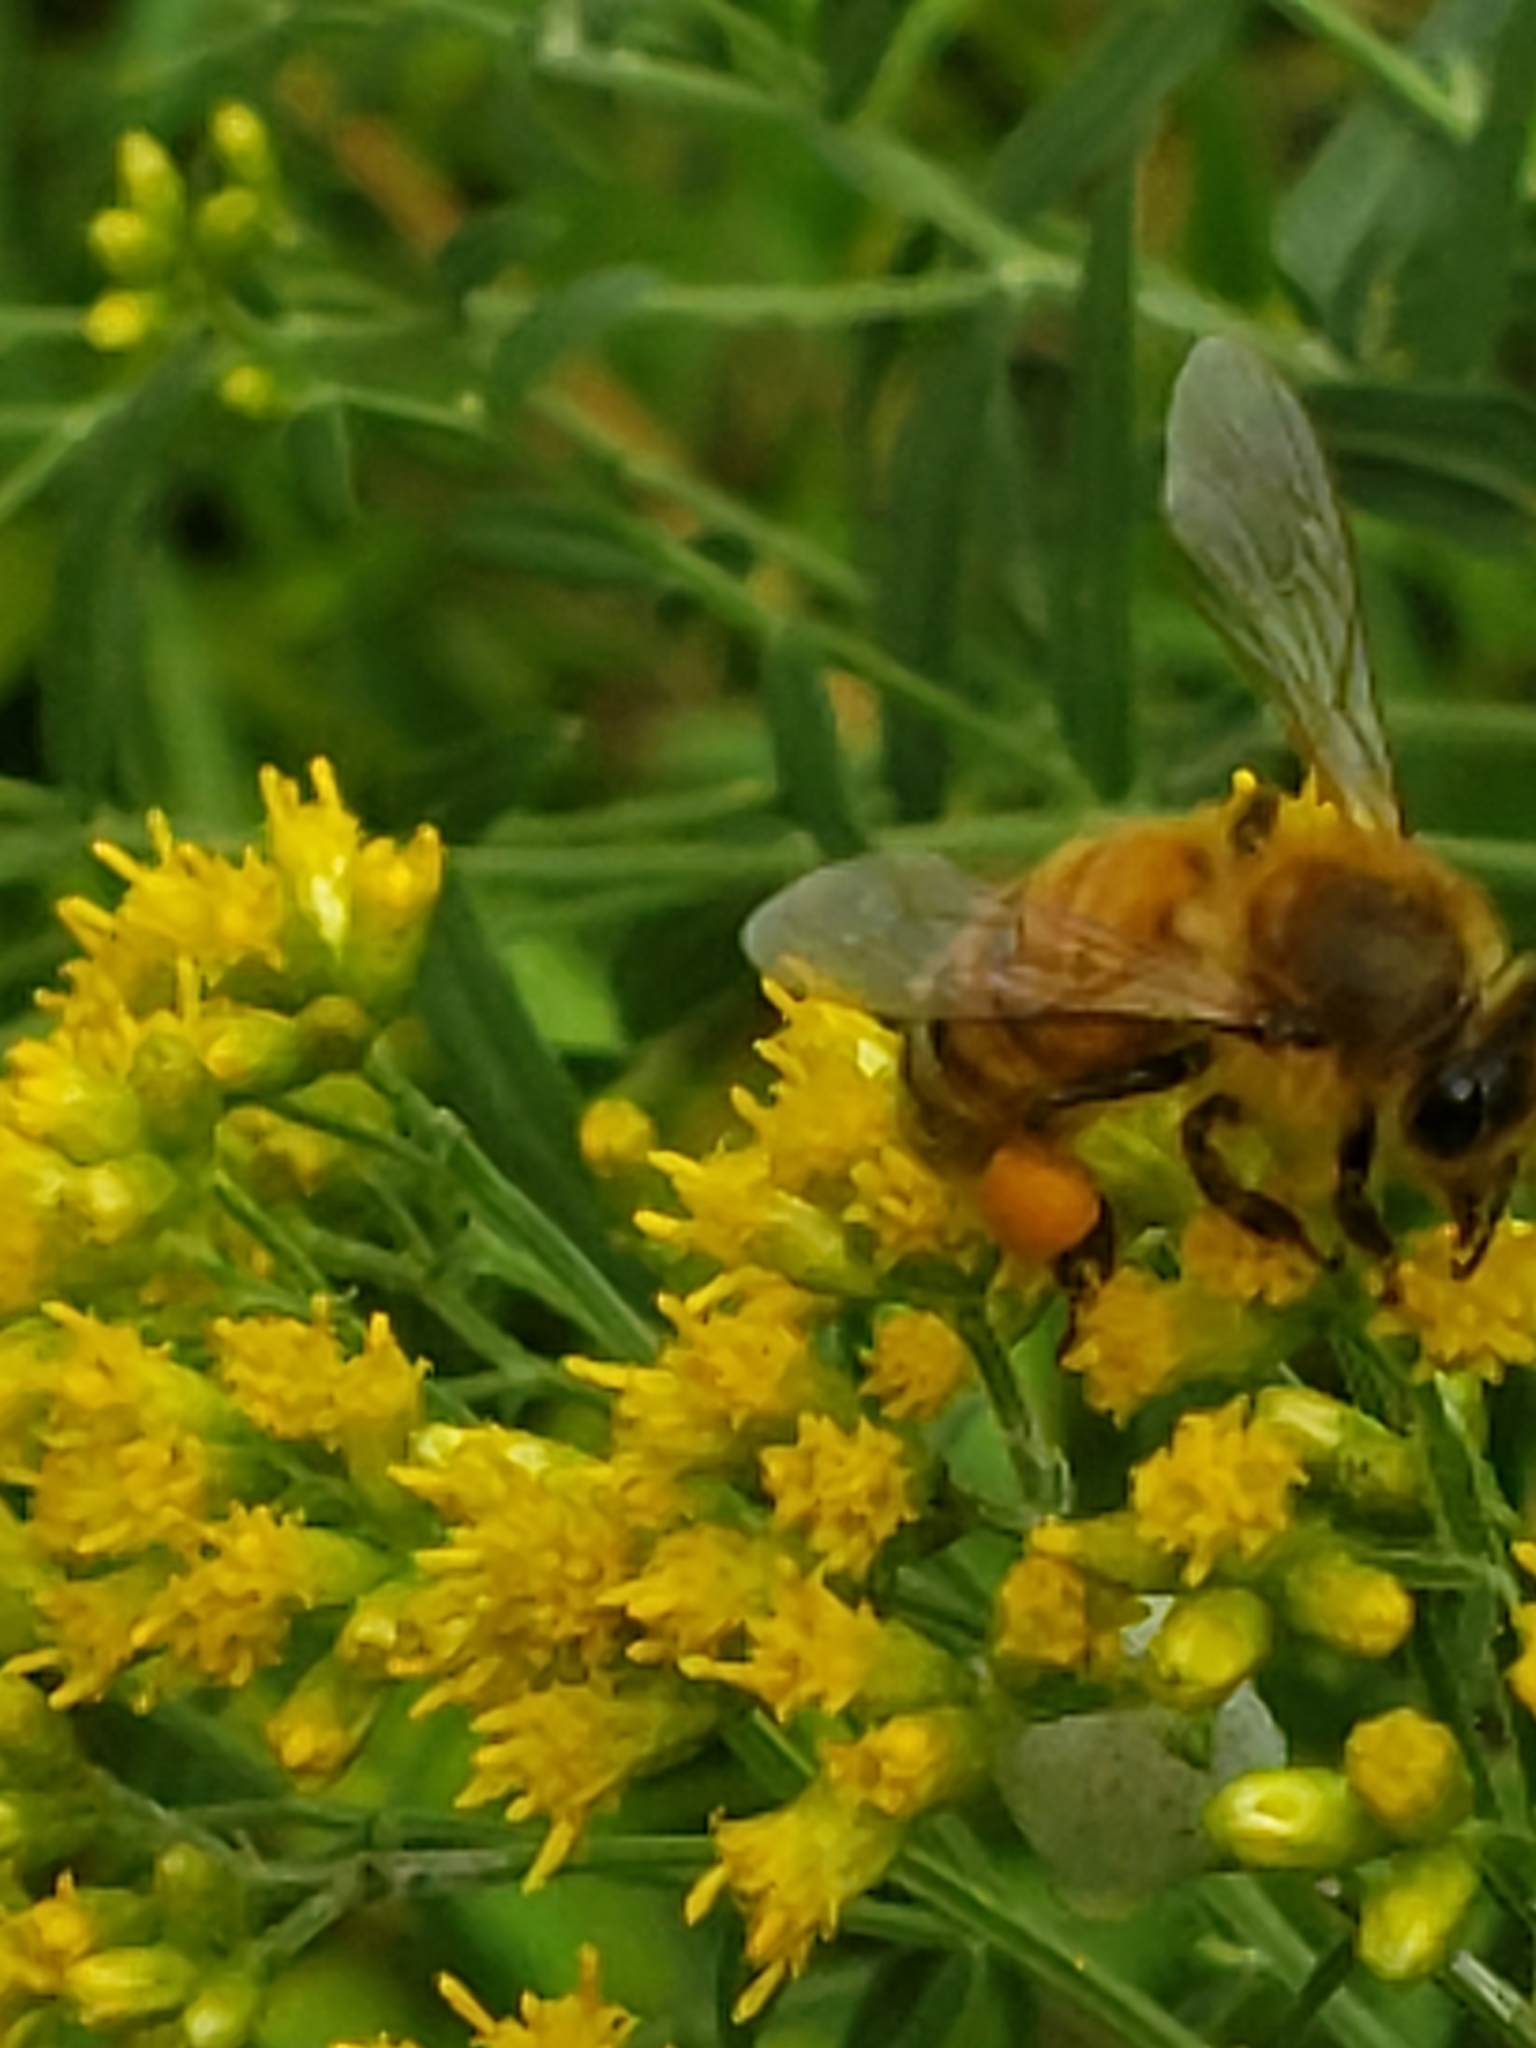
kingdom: Animalia
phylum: Arthropoda
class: Insecta
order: Hymenoptera
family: Apidae
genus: Apis
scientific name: Apis mellifera
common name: Honey bee
